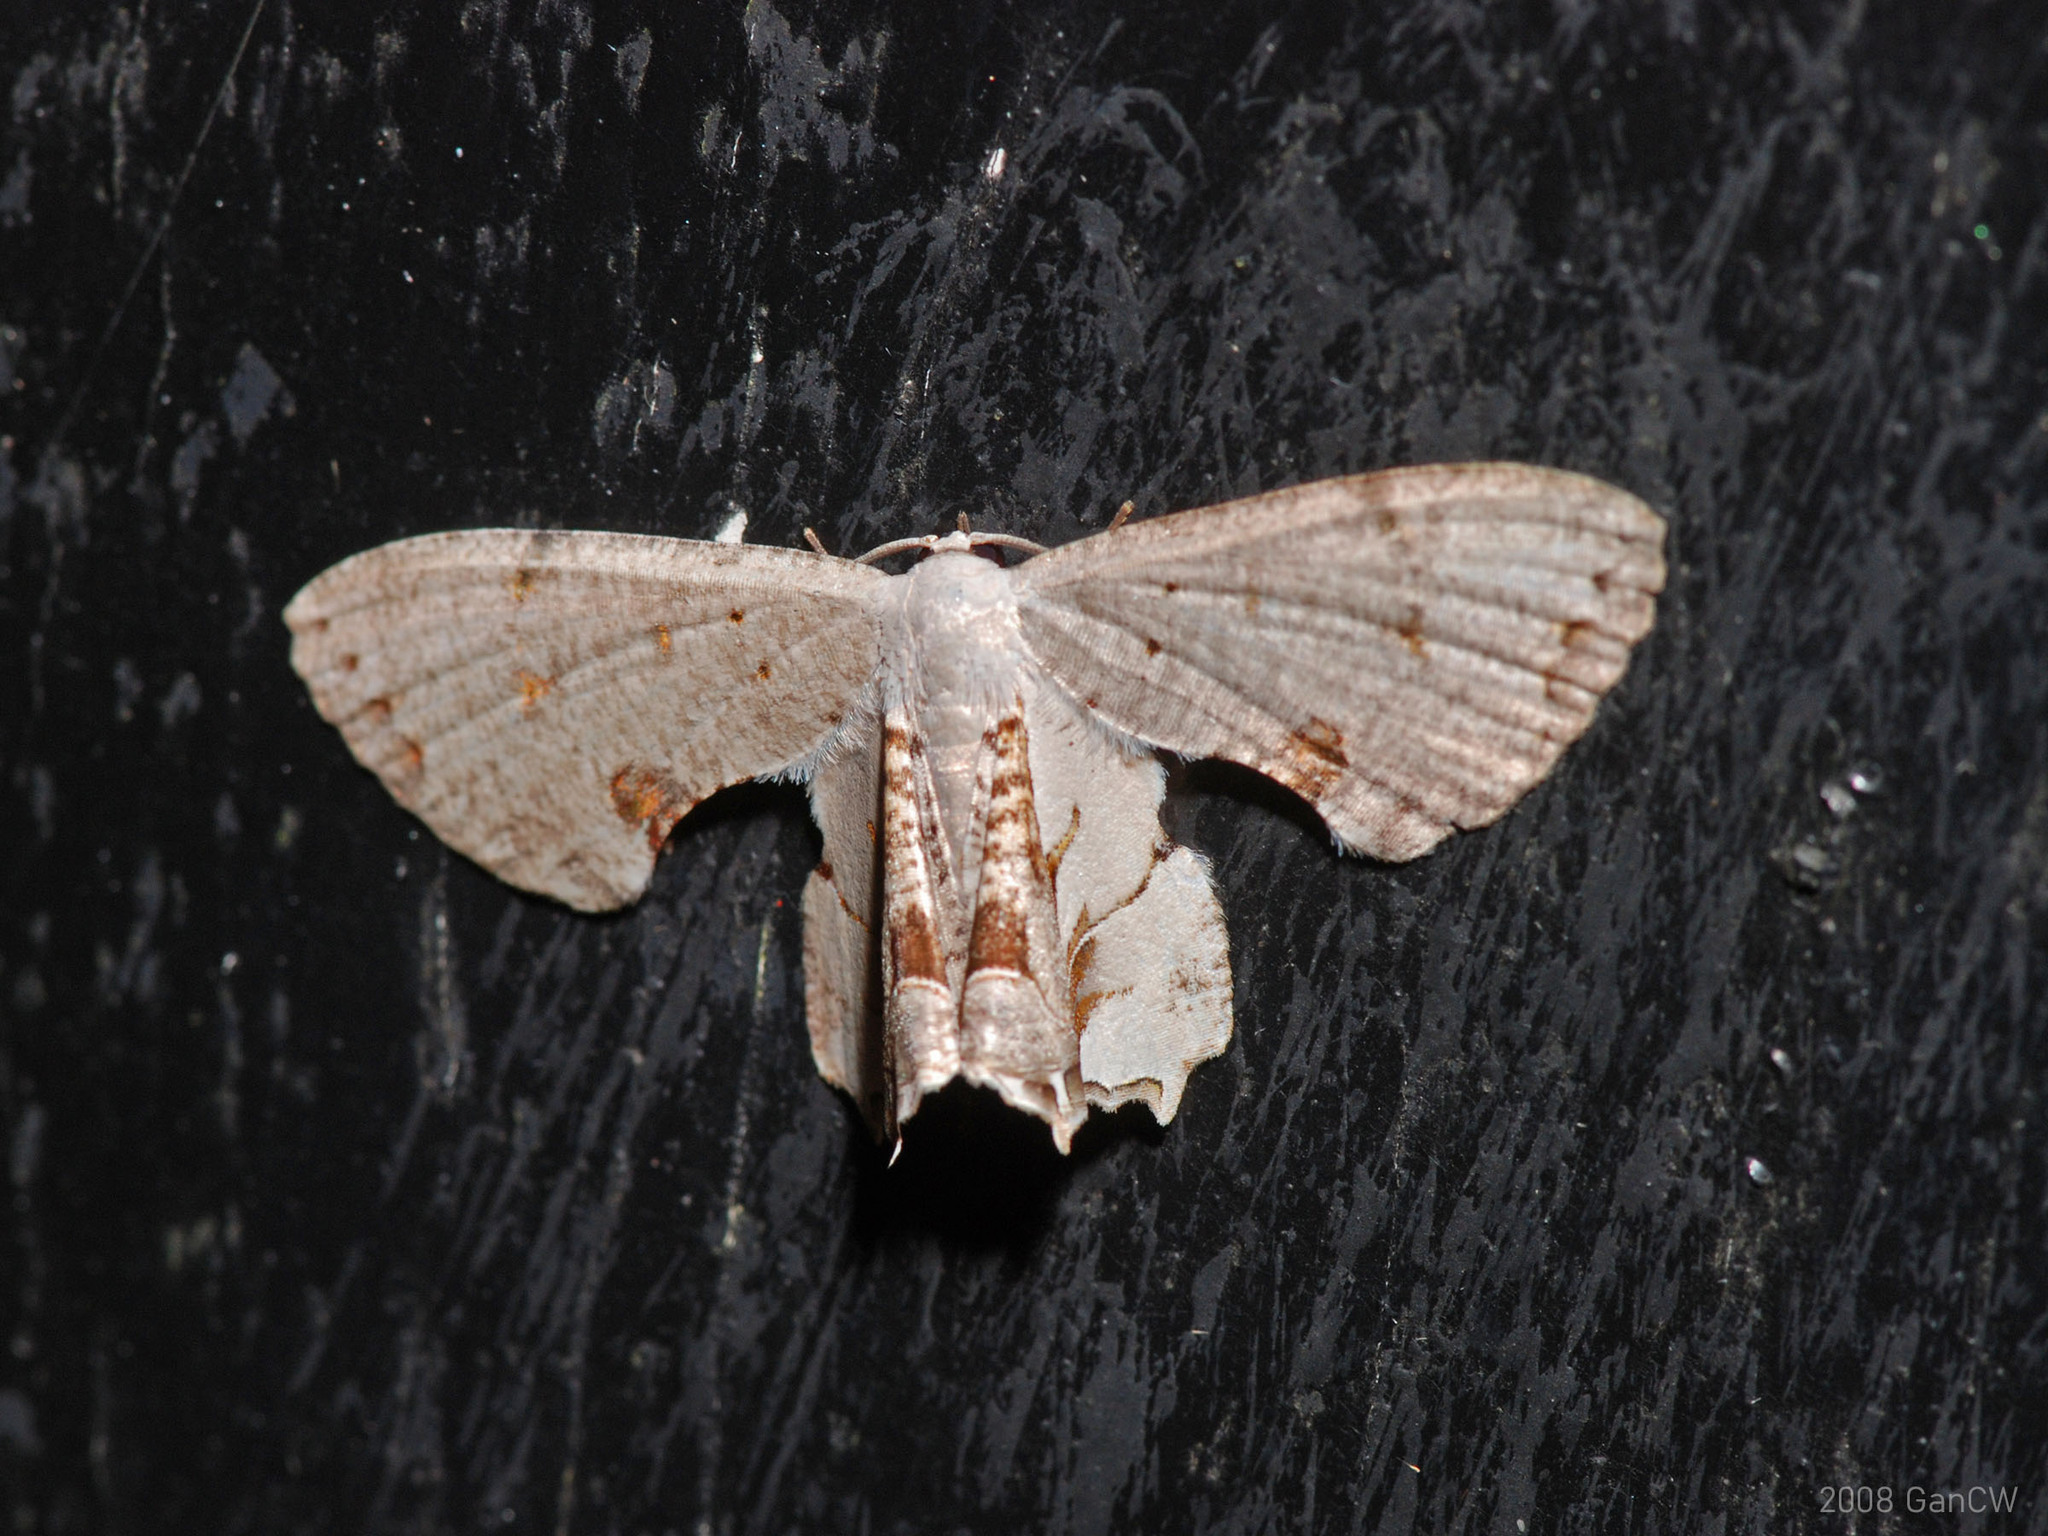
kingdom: Animalia
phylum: Arthropoda
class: Insecta
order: Lepidoptera
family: Uraniidae
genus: Dysaethria
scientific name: Dysaethria lilacina
